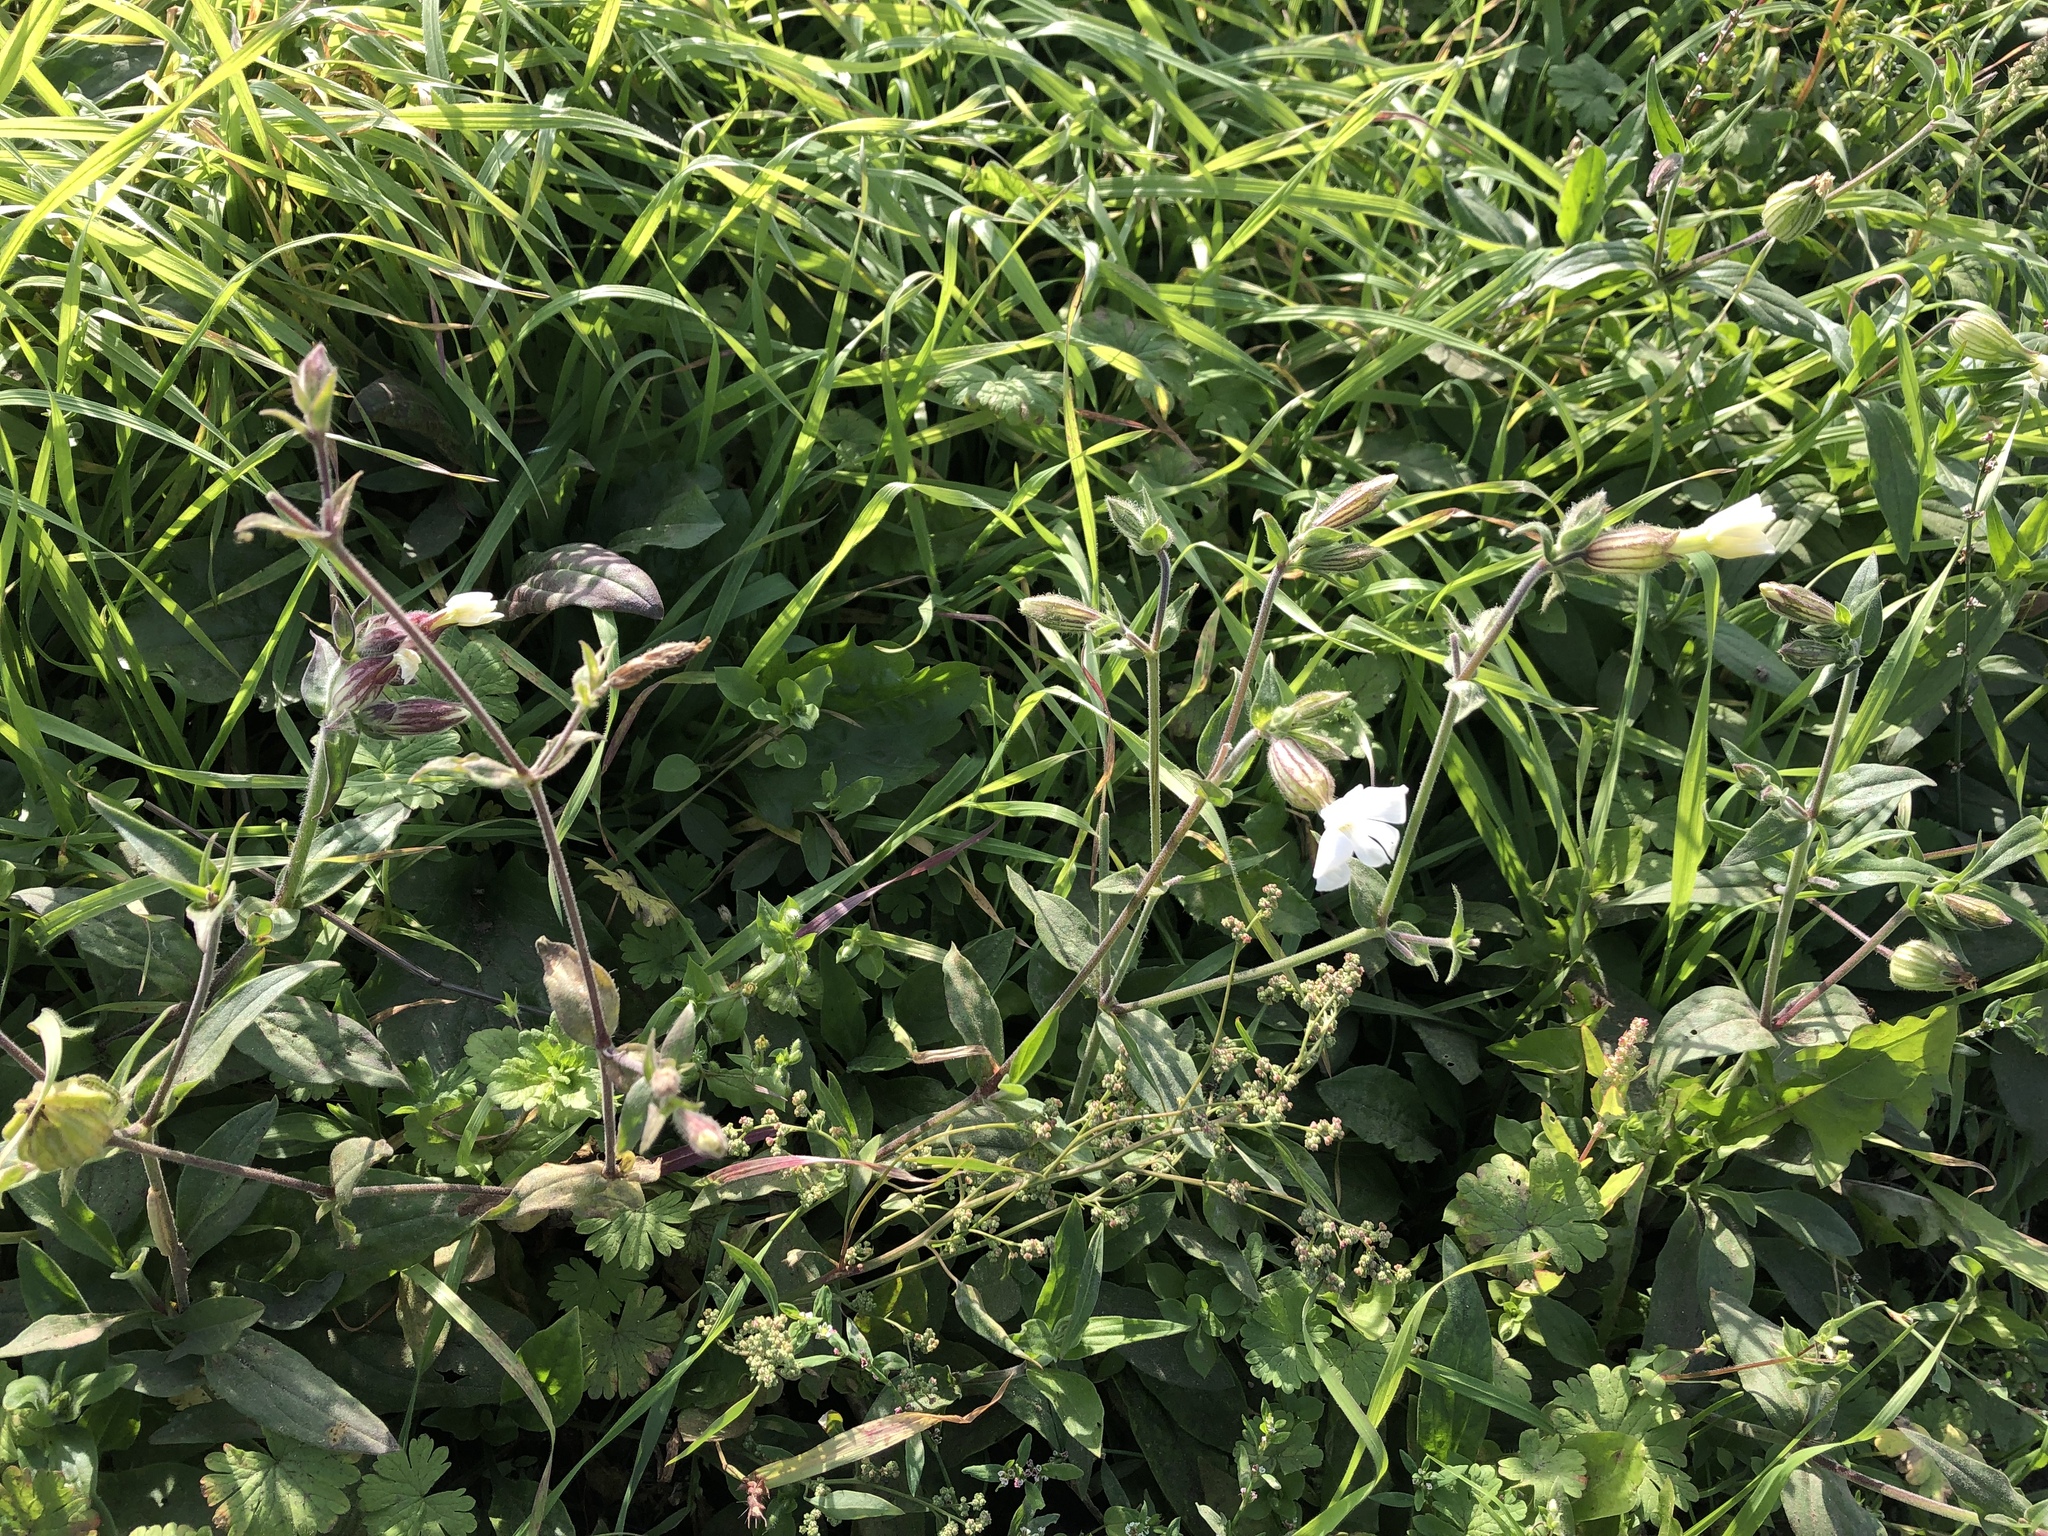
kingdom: Plantae
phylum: Tracheophyta
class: Magnoliopsida
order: Caryophyllales
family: Caryophyllaceae
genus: Silene
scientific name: Silene latifolia
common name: White campion
